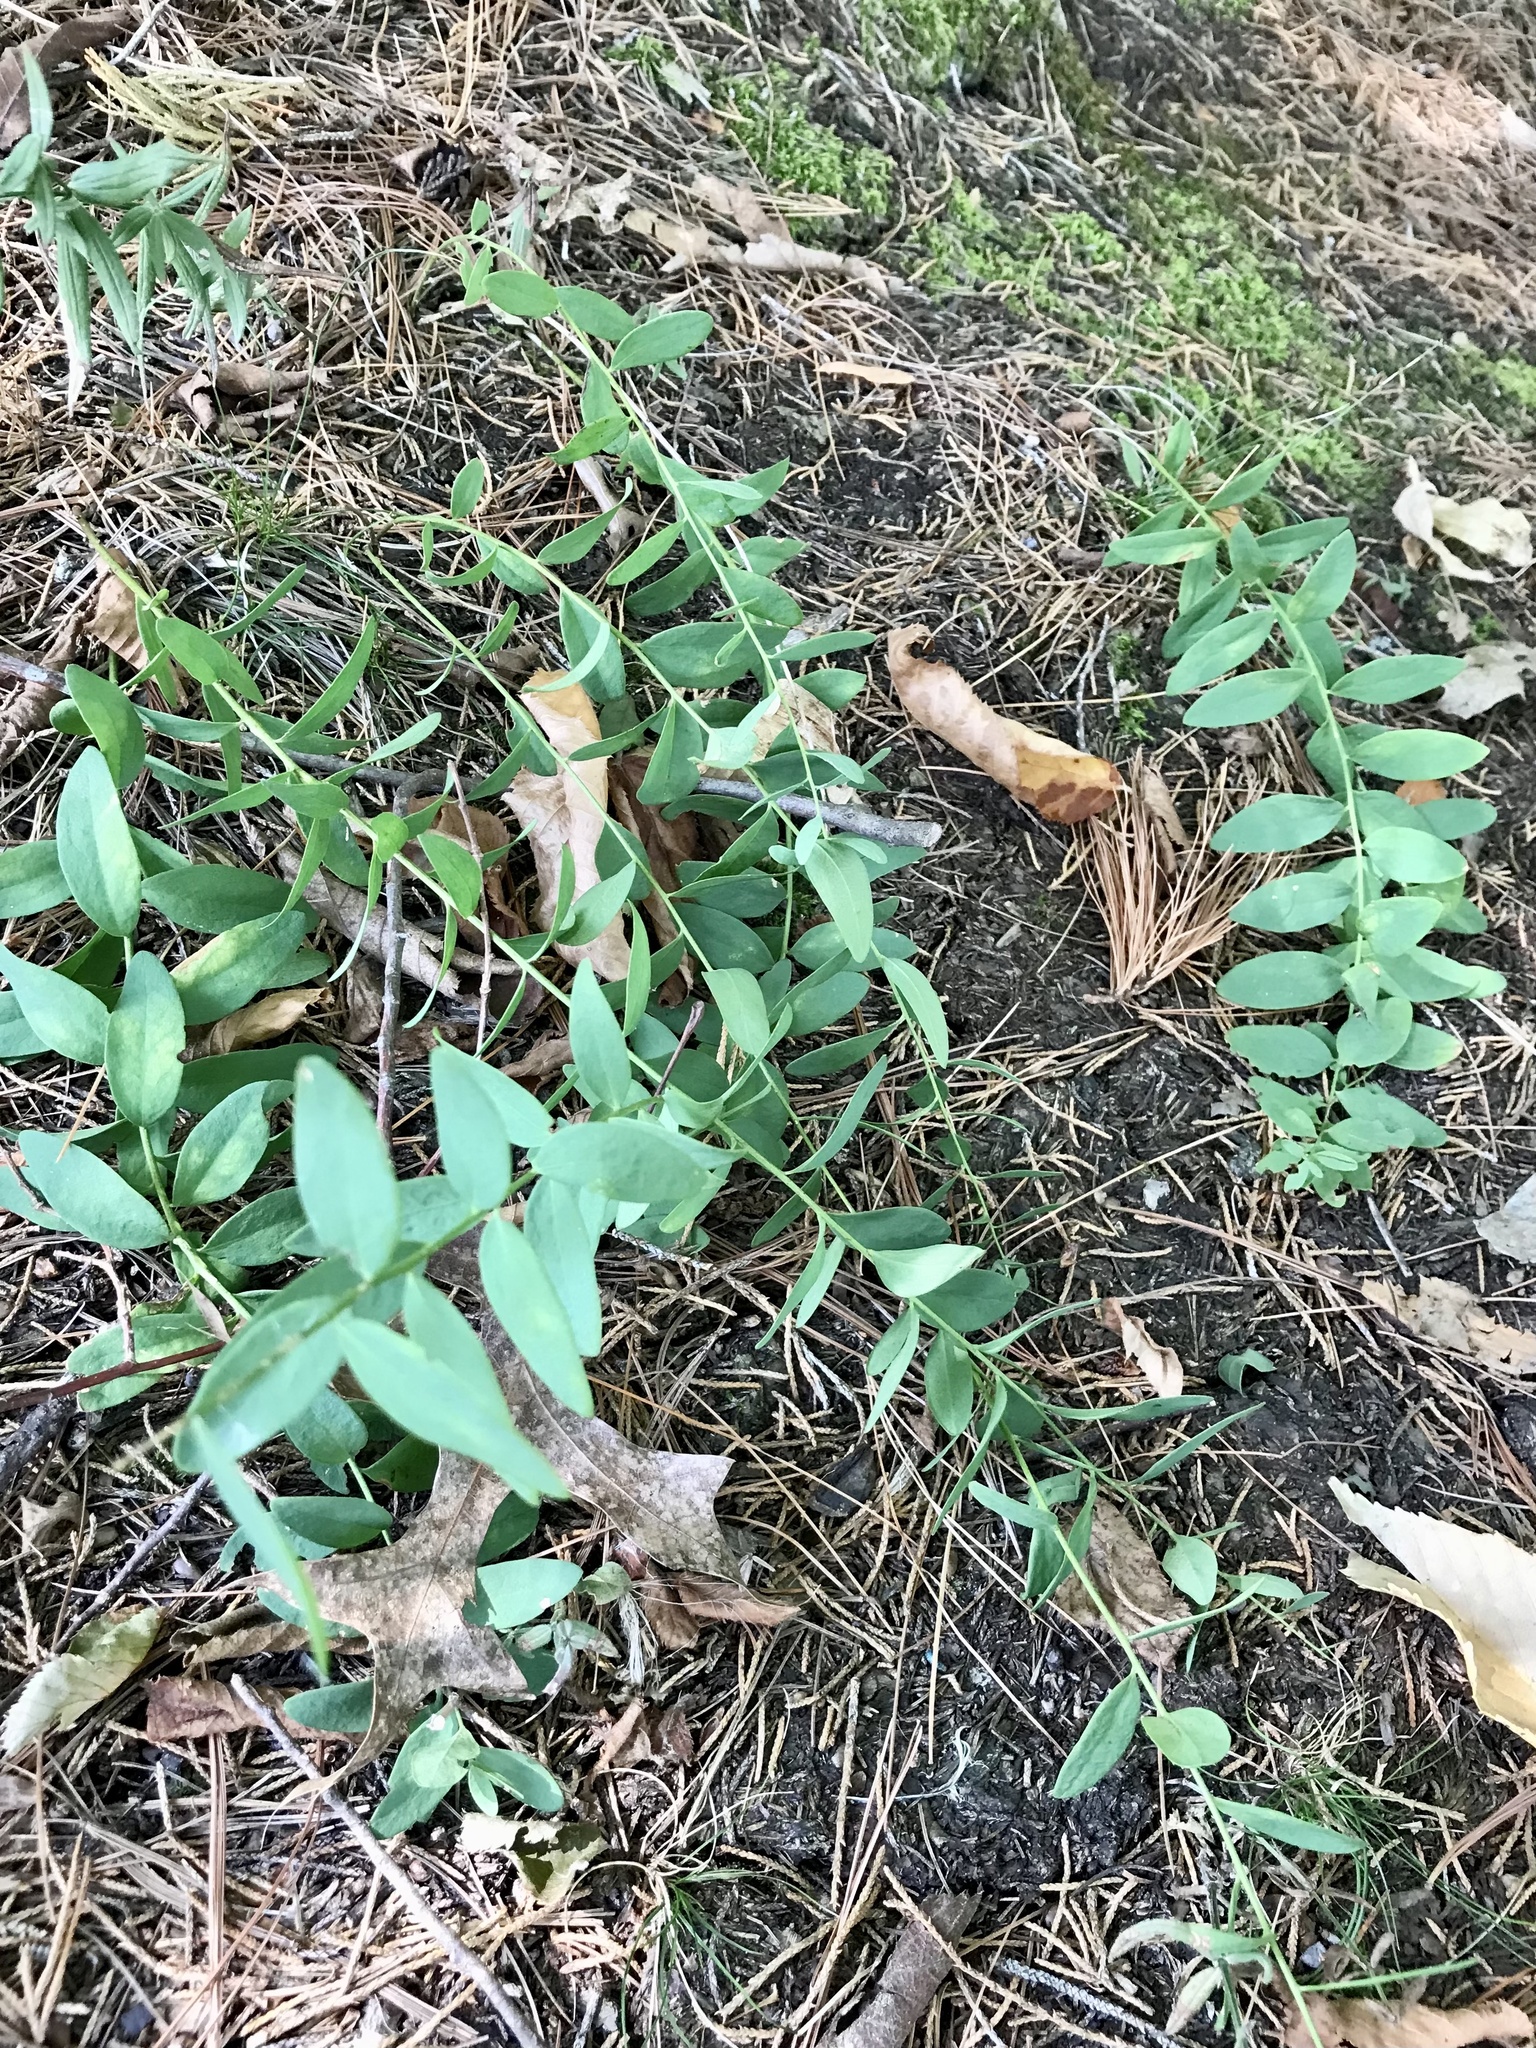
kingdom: Plantae
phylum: Tracheophyta
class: Magnoliopsida
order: Santalales
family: Comandraceae
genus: Comandra
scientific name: Comandra umbellata
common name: Bastard toadflax
